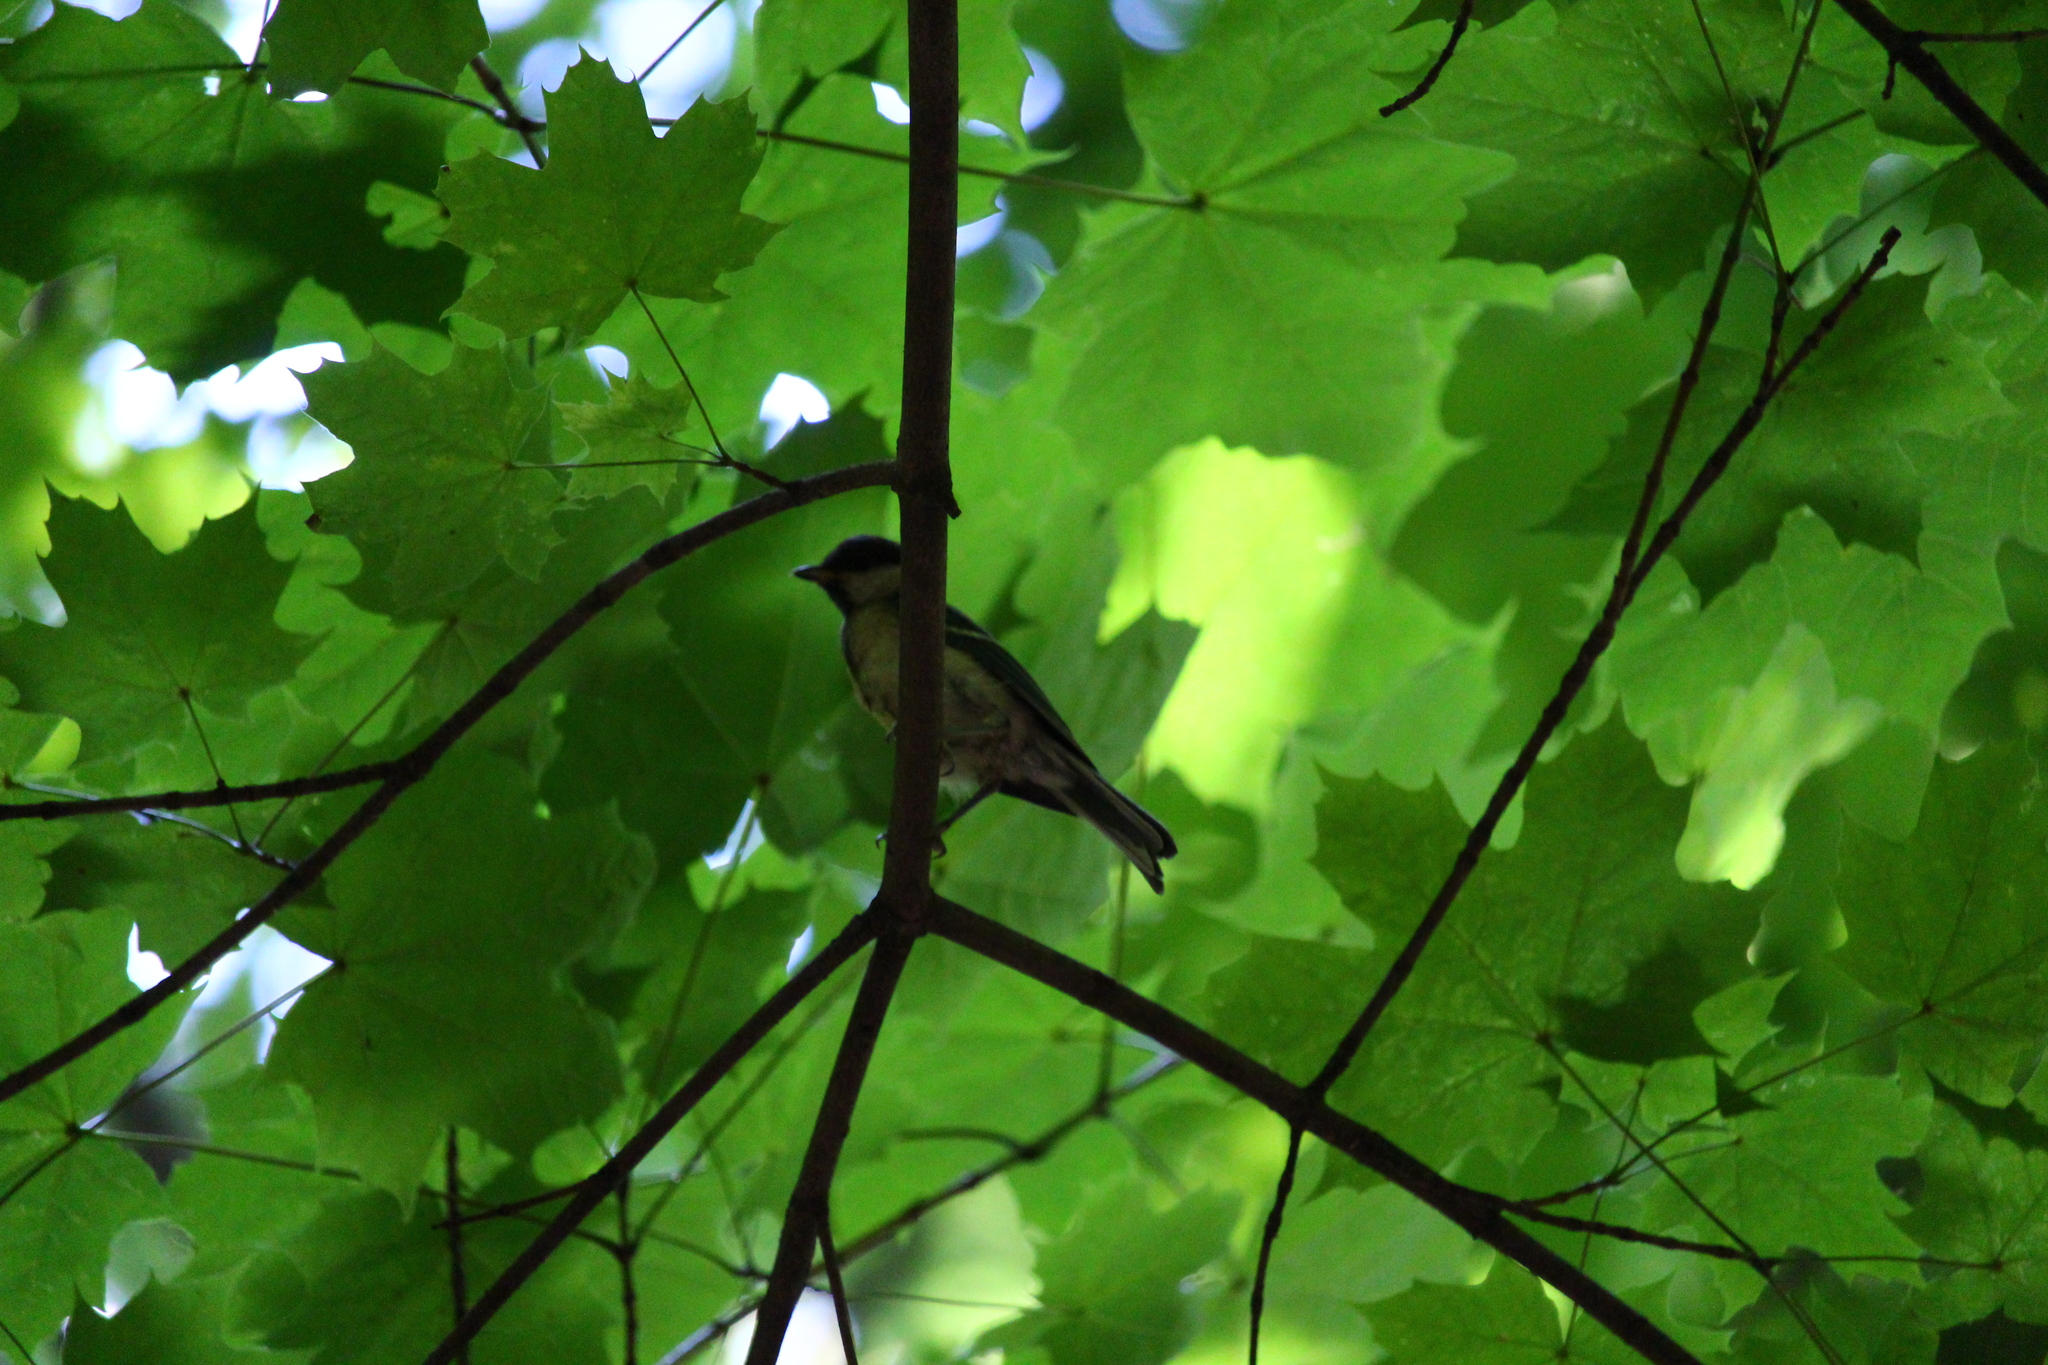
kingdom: Animalia
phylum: Chordata
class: Aves
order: Passeriformes
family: Paridae
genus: Parus
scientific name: Parus major
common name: Great tit
